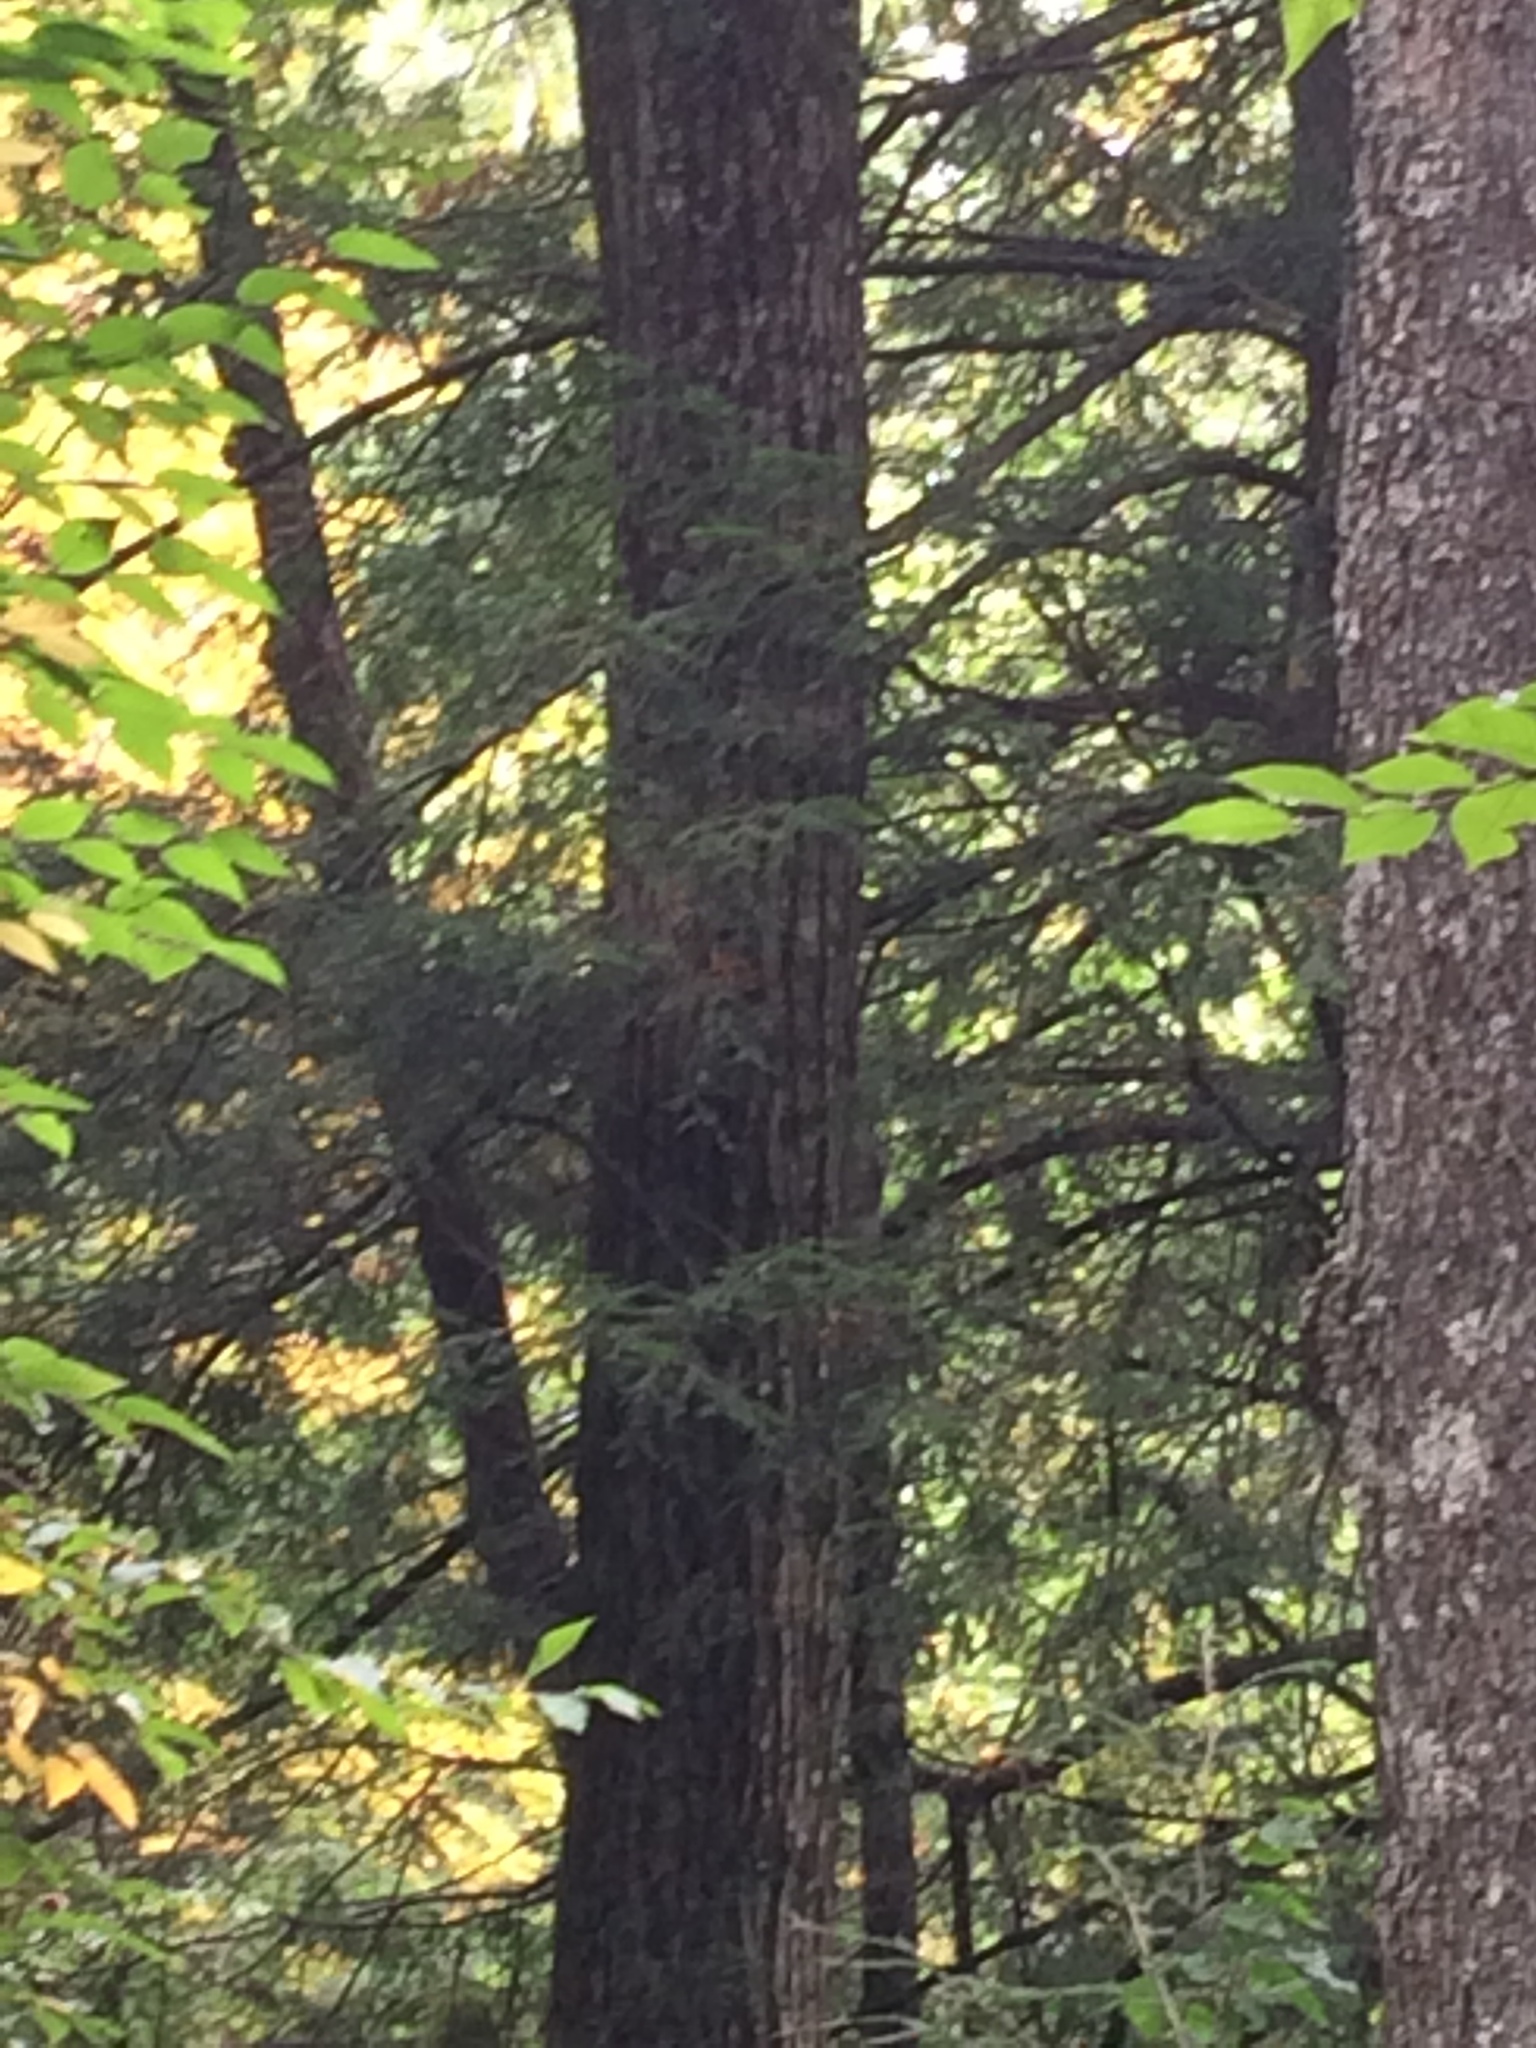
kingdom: Plantae
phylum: Tracheophyta
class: Magnoliopsida
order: Fagales
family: Fagaceae
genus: Quercus
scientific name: Quercus rubra
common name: Red oak
